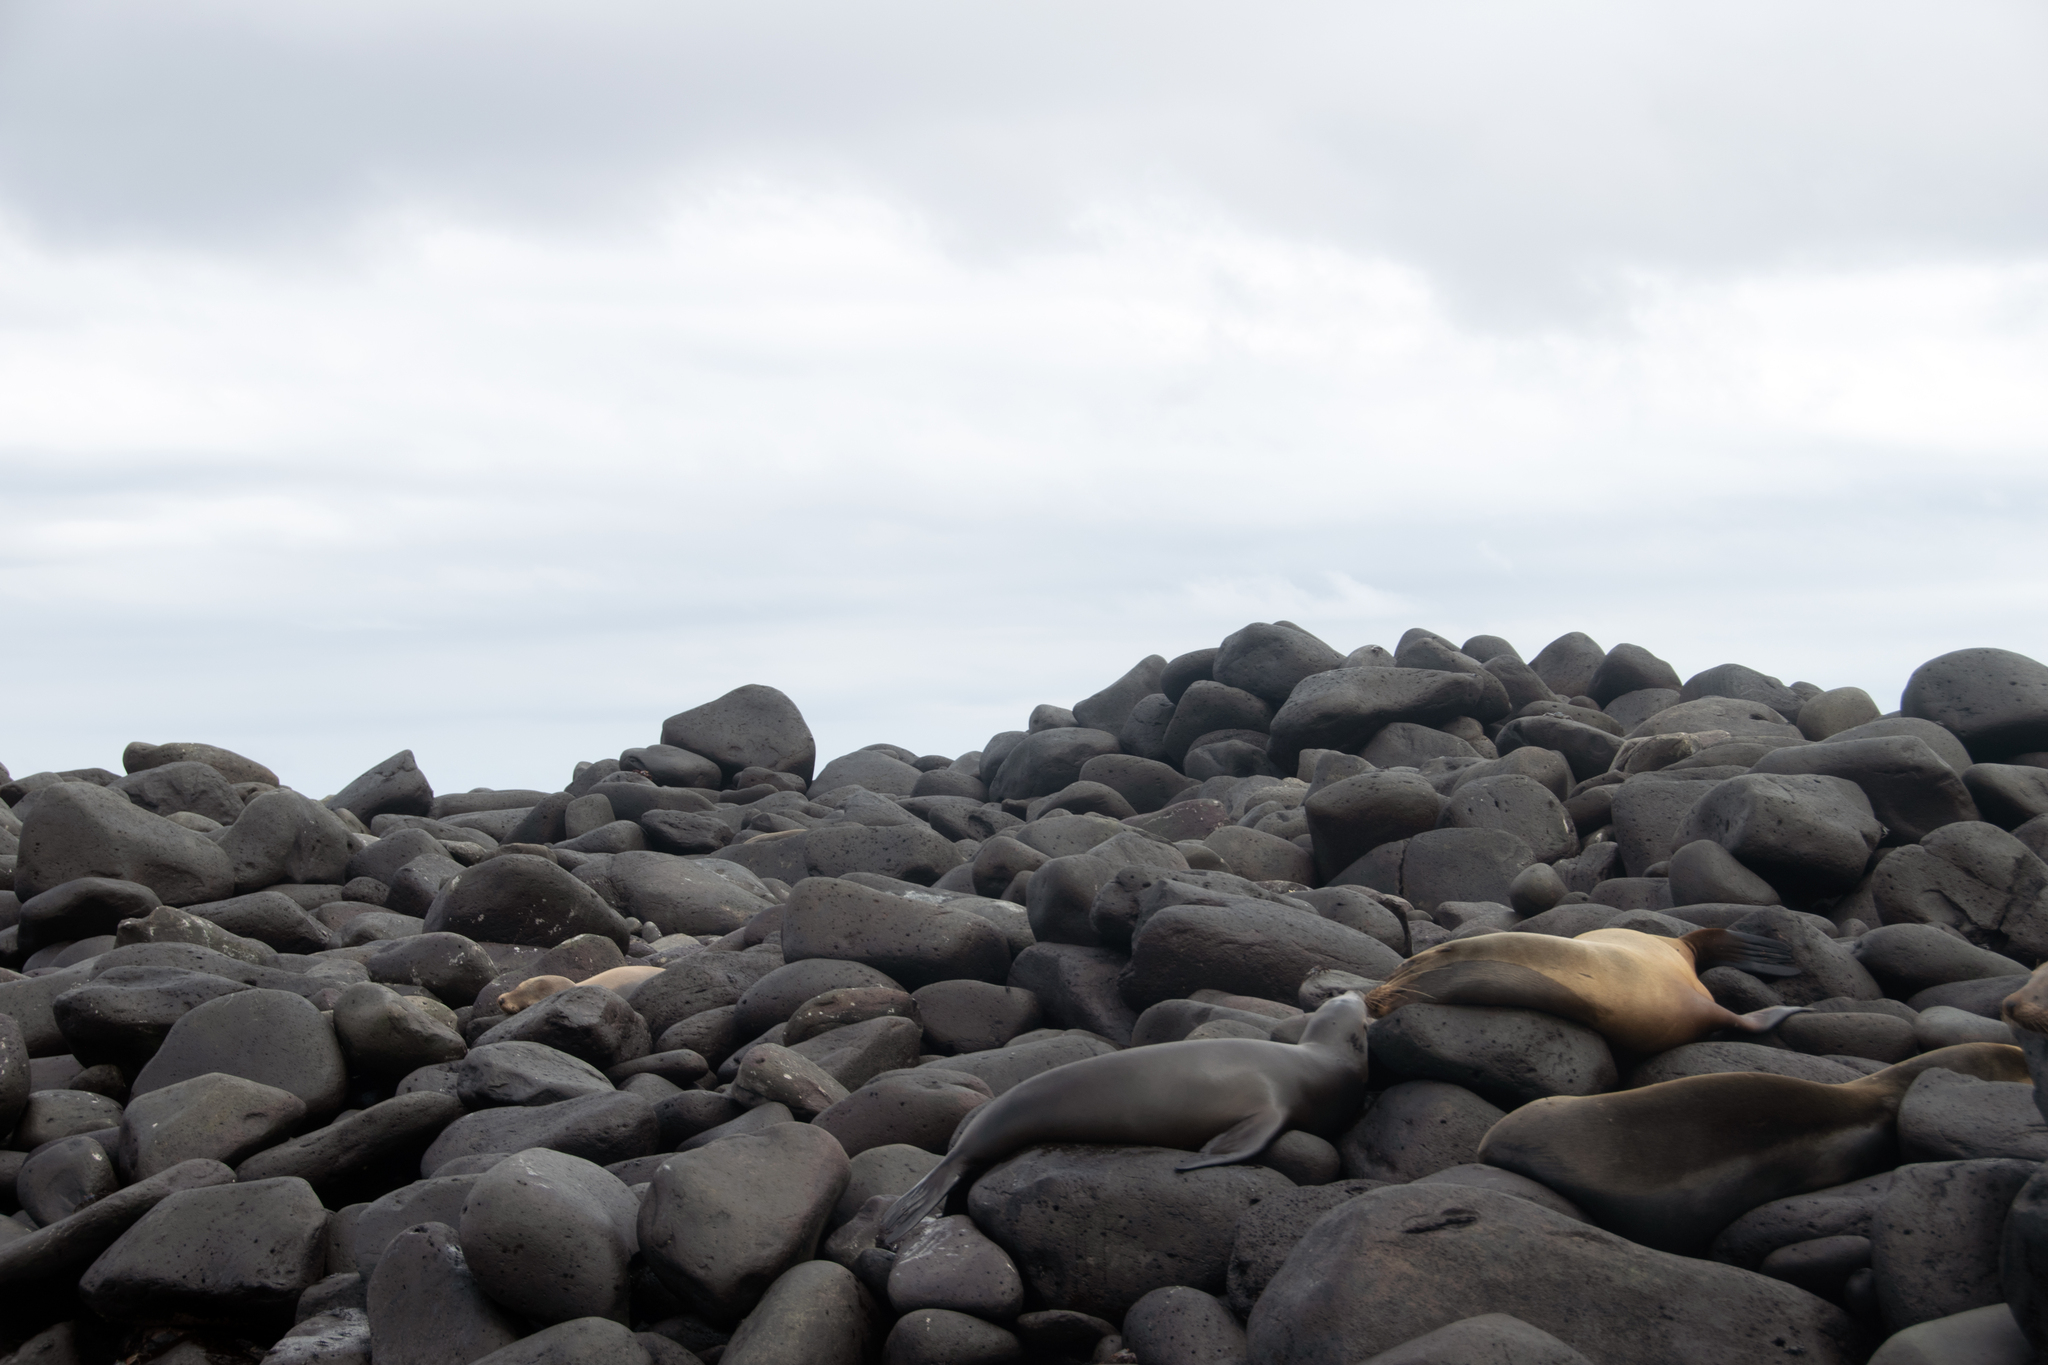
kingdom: Animalia
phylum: Chordata
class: Mammalia
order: Carnivora
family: Otariidae
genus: Zalophus
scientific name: Zalophus wollebaeki
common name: Galapagos sea lion
